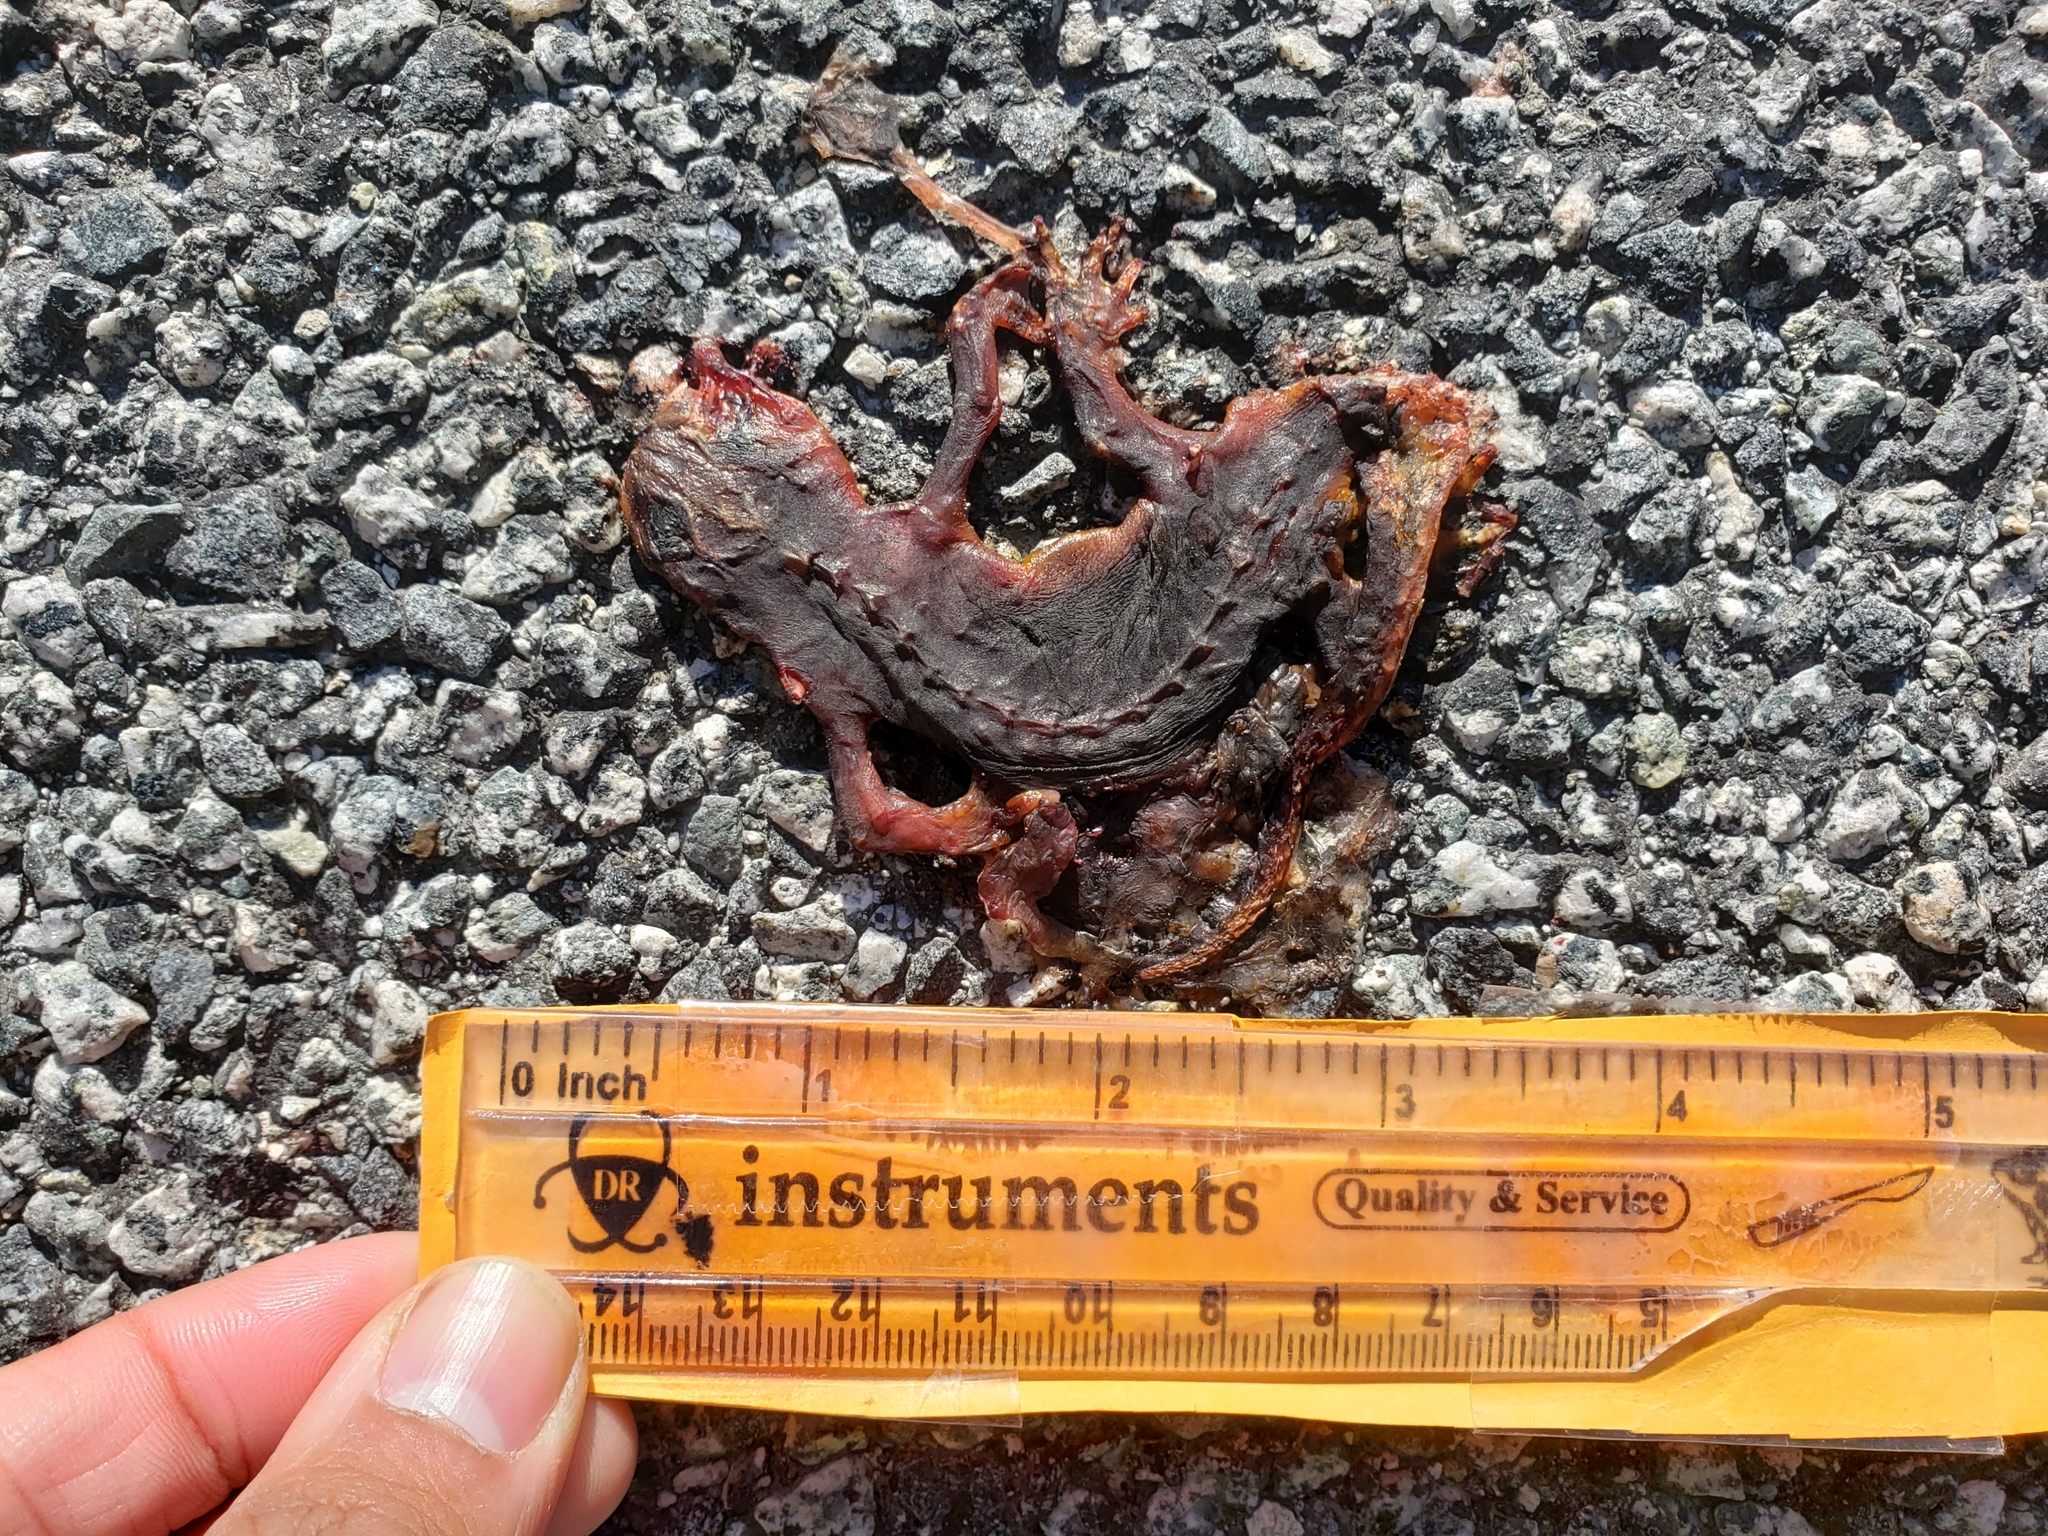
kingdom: Animalia
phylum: Chordata
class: Amphibia
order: Caudata
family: Salamandridae
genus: Taricha
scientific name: Taricha
